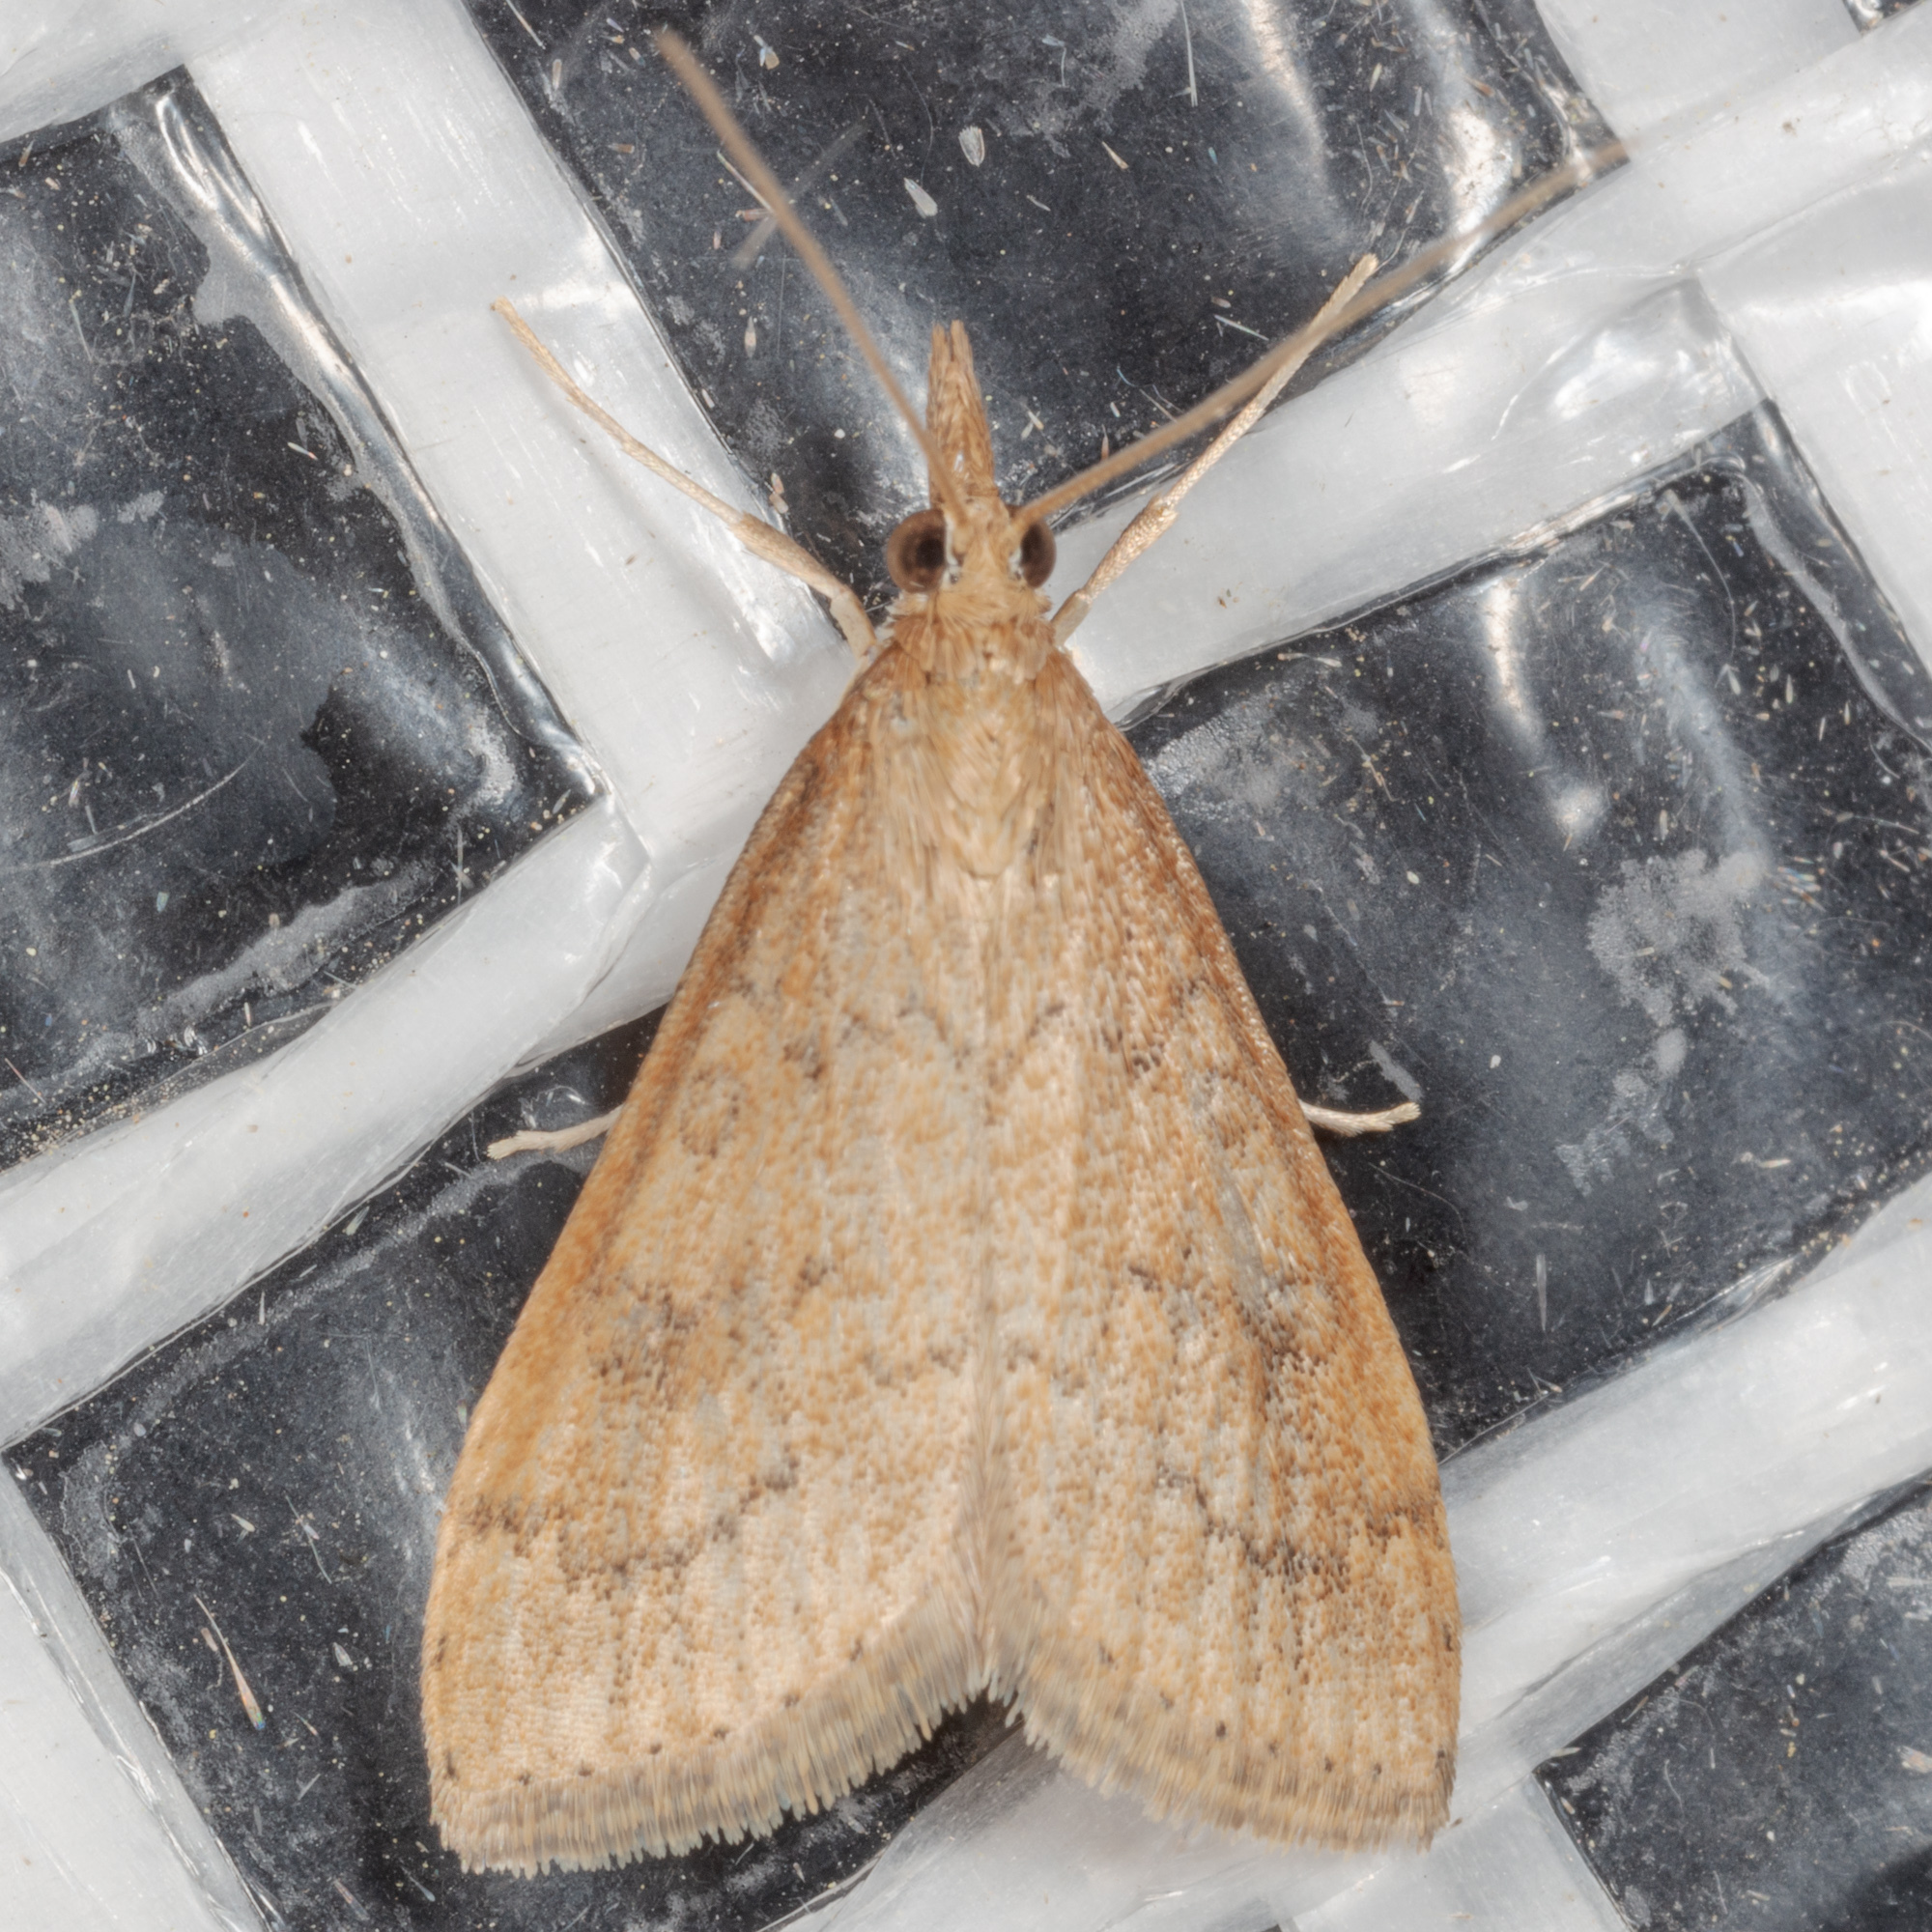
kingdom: Animalia
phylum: Arthropoda
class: Insecta
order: Lepidoptera
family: Crambidae
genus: Udea
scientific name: Udea rubigalis
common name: Celery leaftier moth
